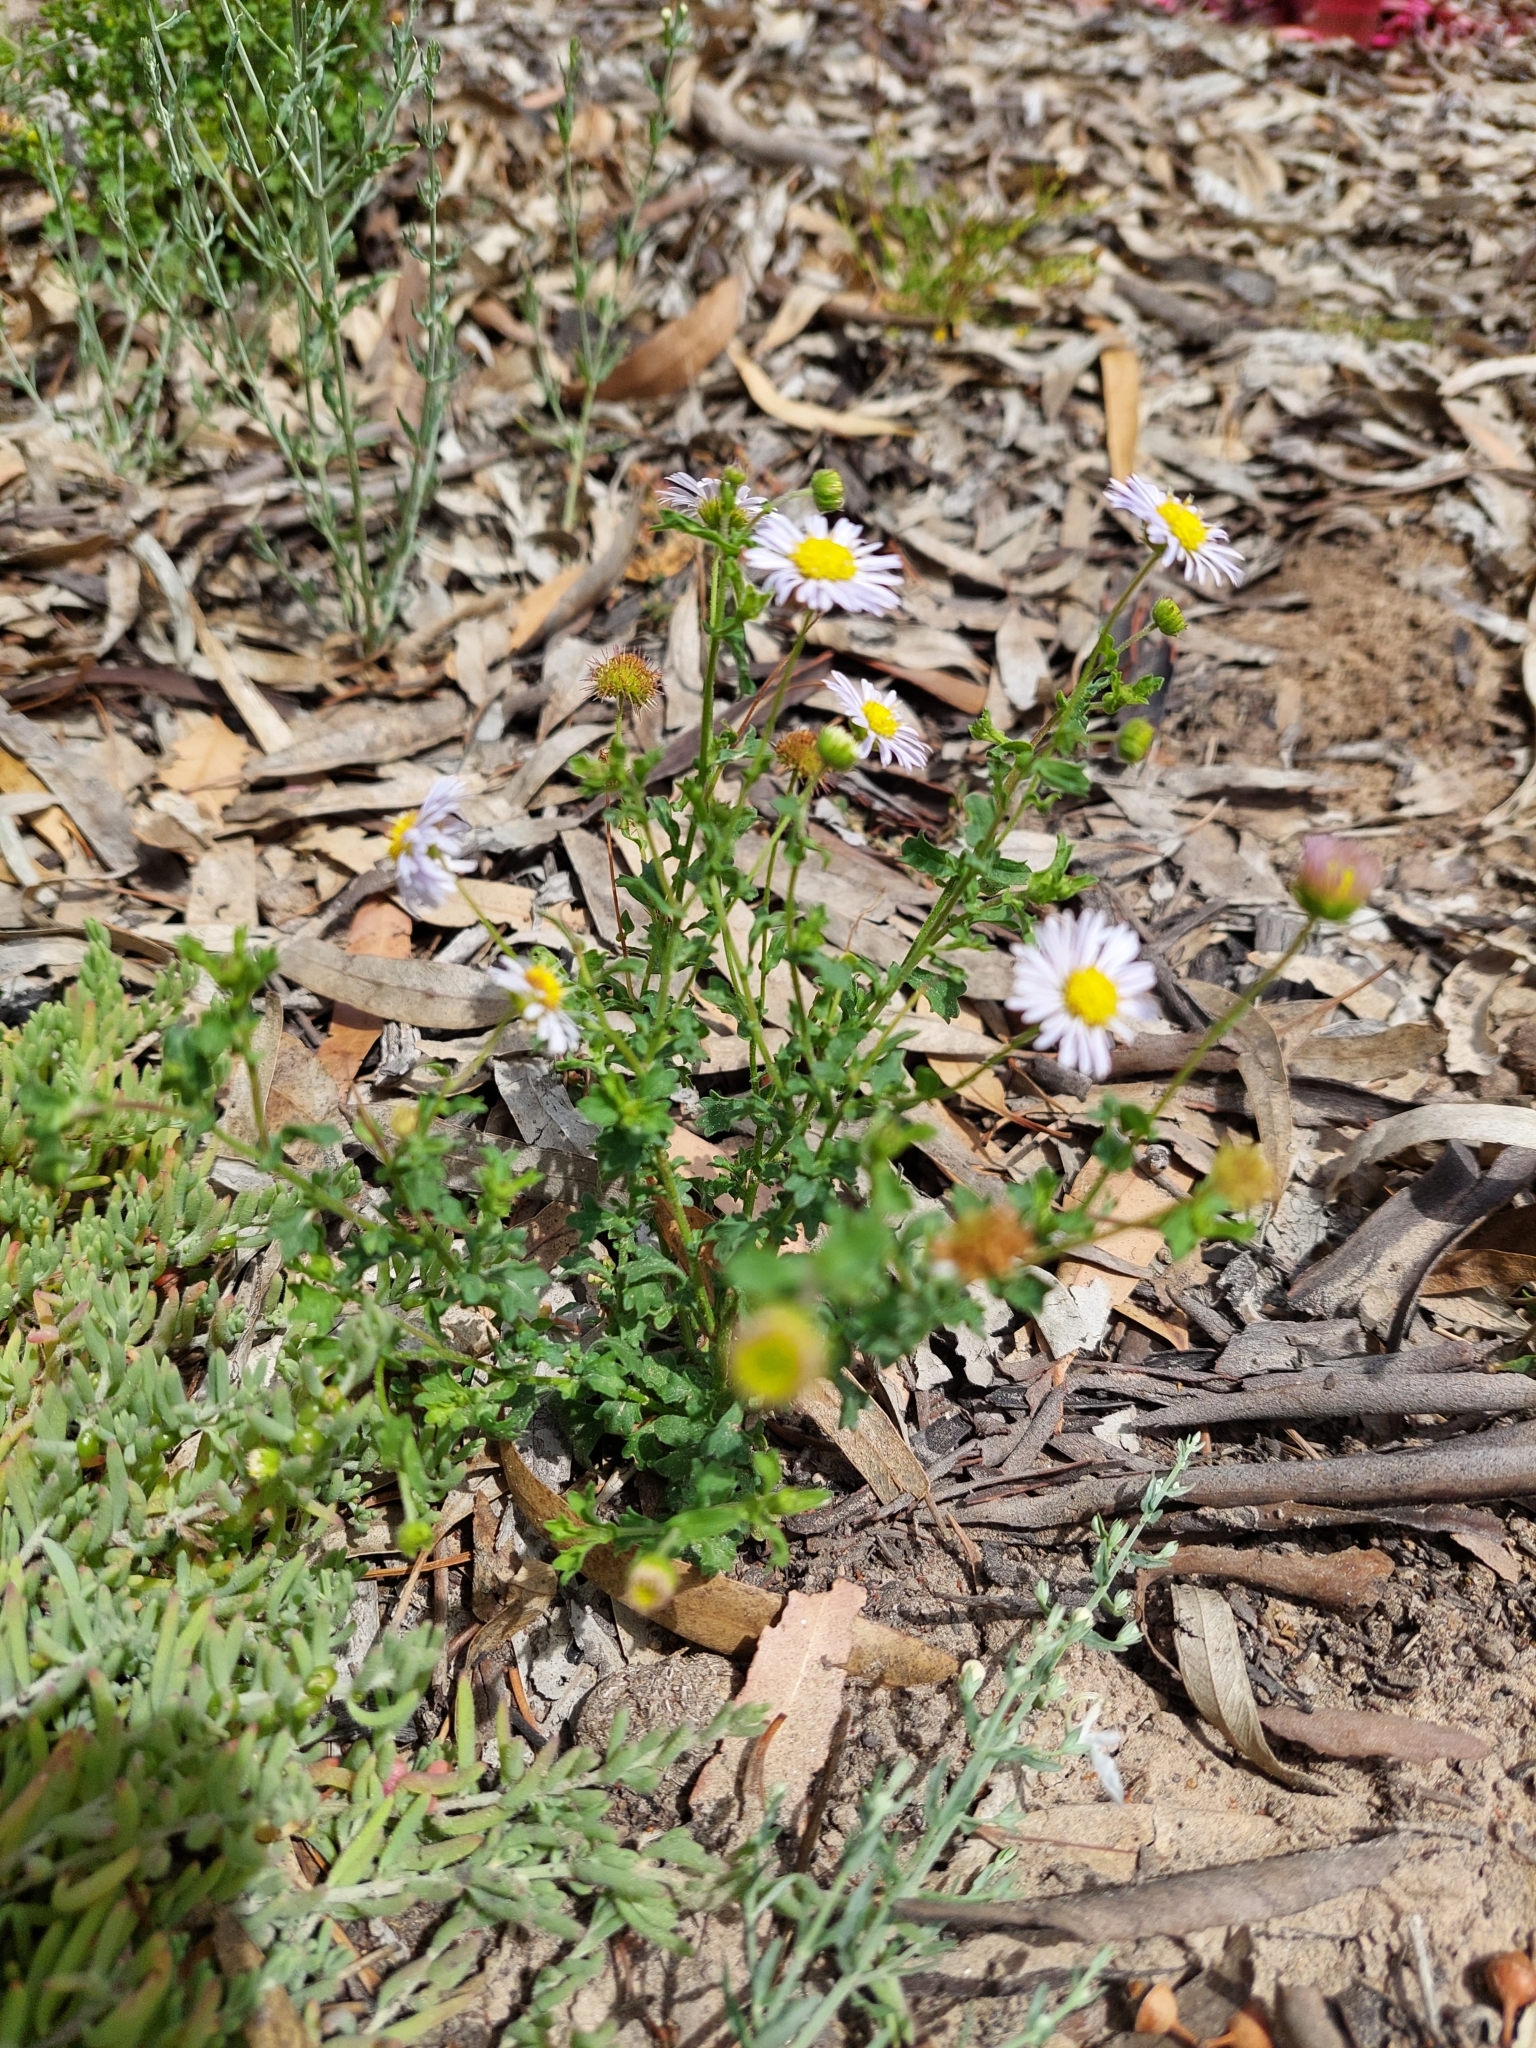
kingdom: Plantae
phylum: Tracheophyta
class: Magnoliopsida
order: Asterales
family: Asteraceae
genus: Calotis
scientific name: Calotis cuneifolia
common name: Bur-daisy
